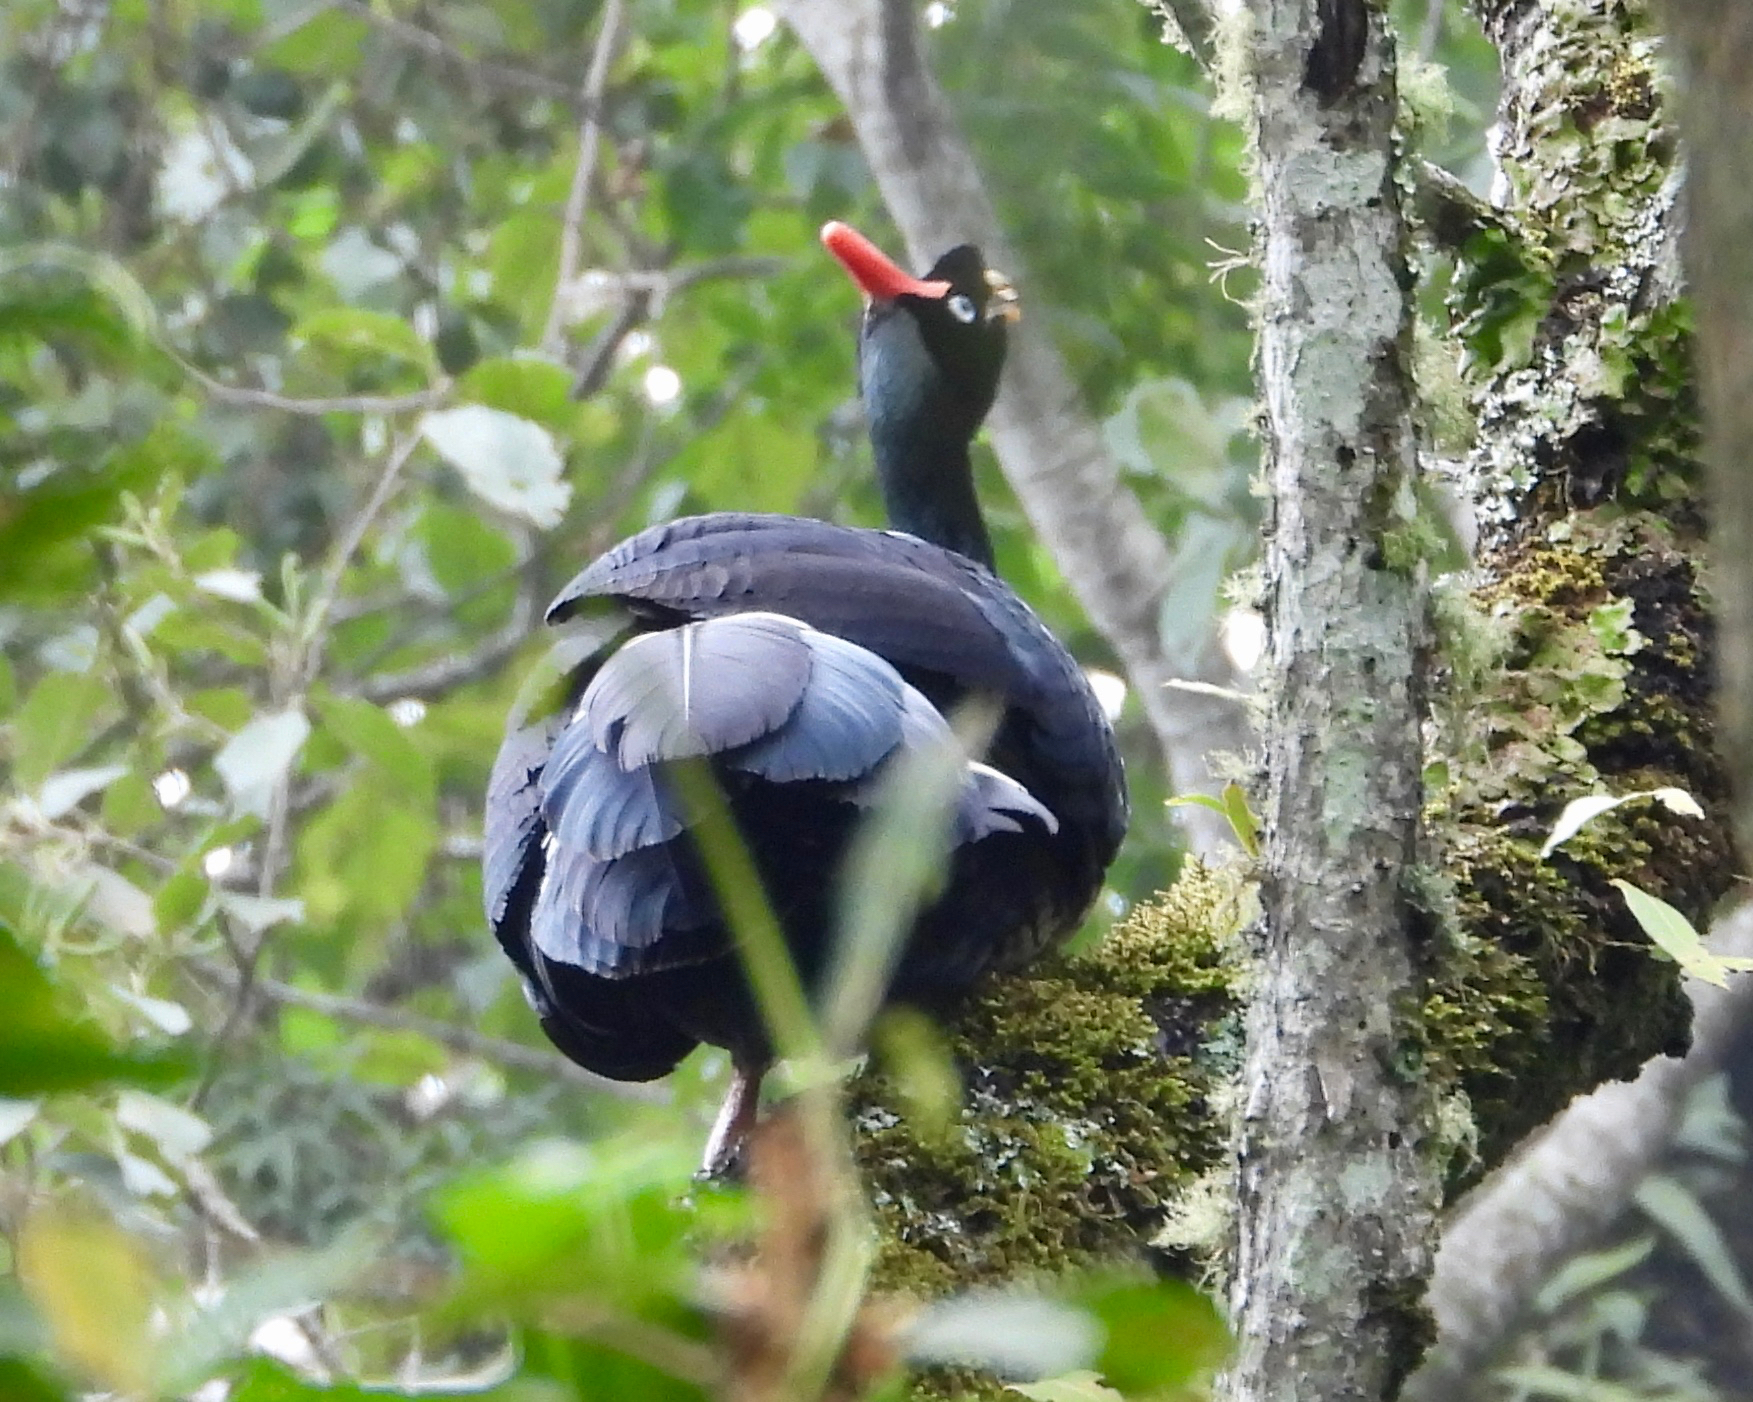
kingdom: Animalia
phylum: Chordata
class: Aves
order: Galliformes
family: Cracidae
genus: Oreophasis
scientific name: Oreophasis derbianus
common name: Horned guan
